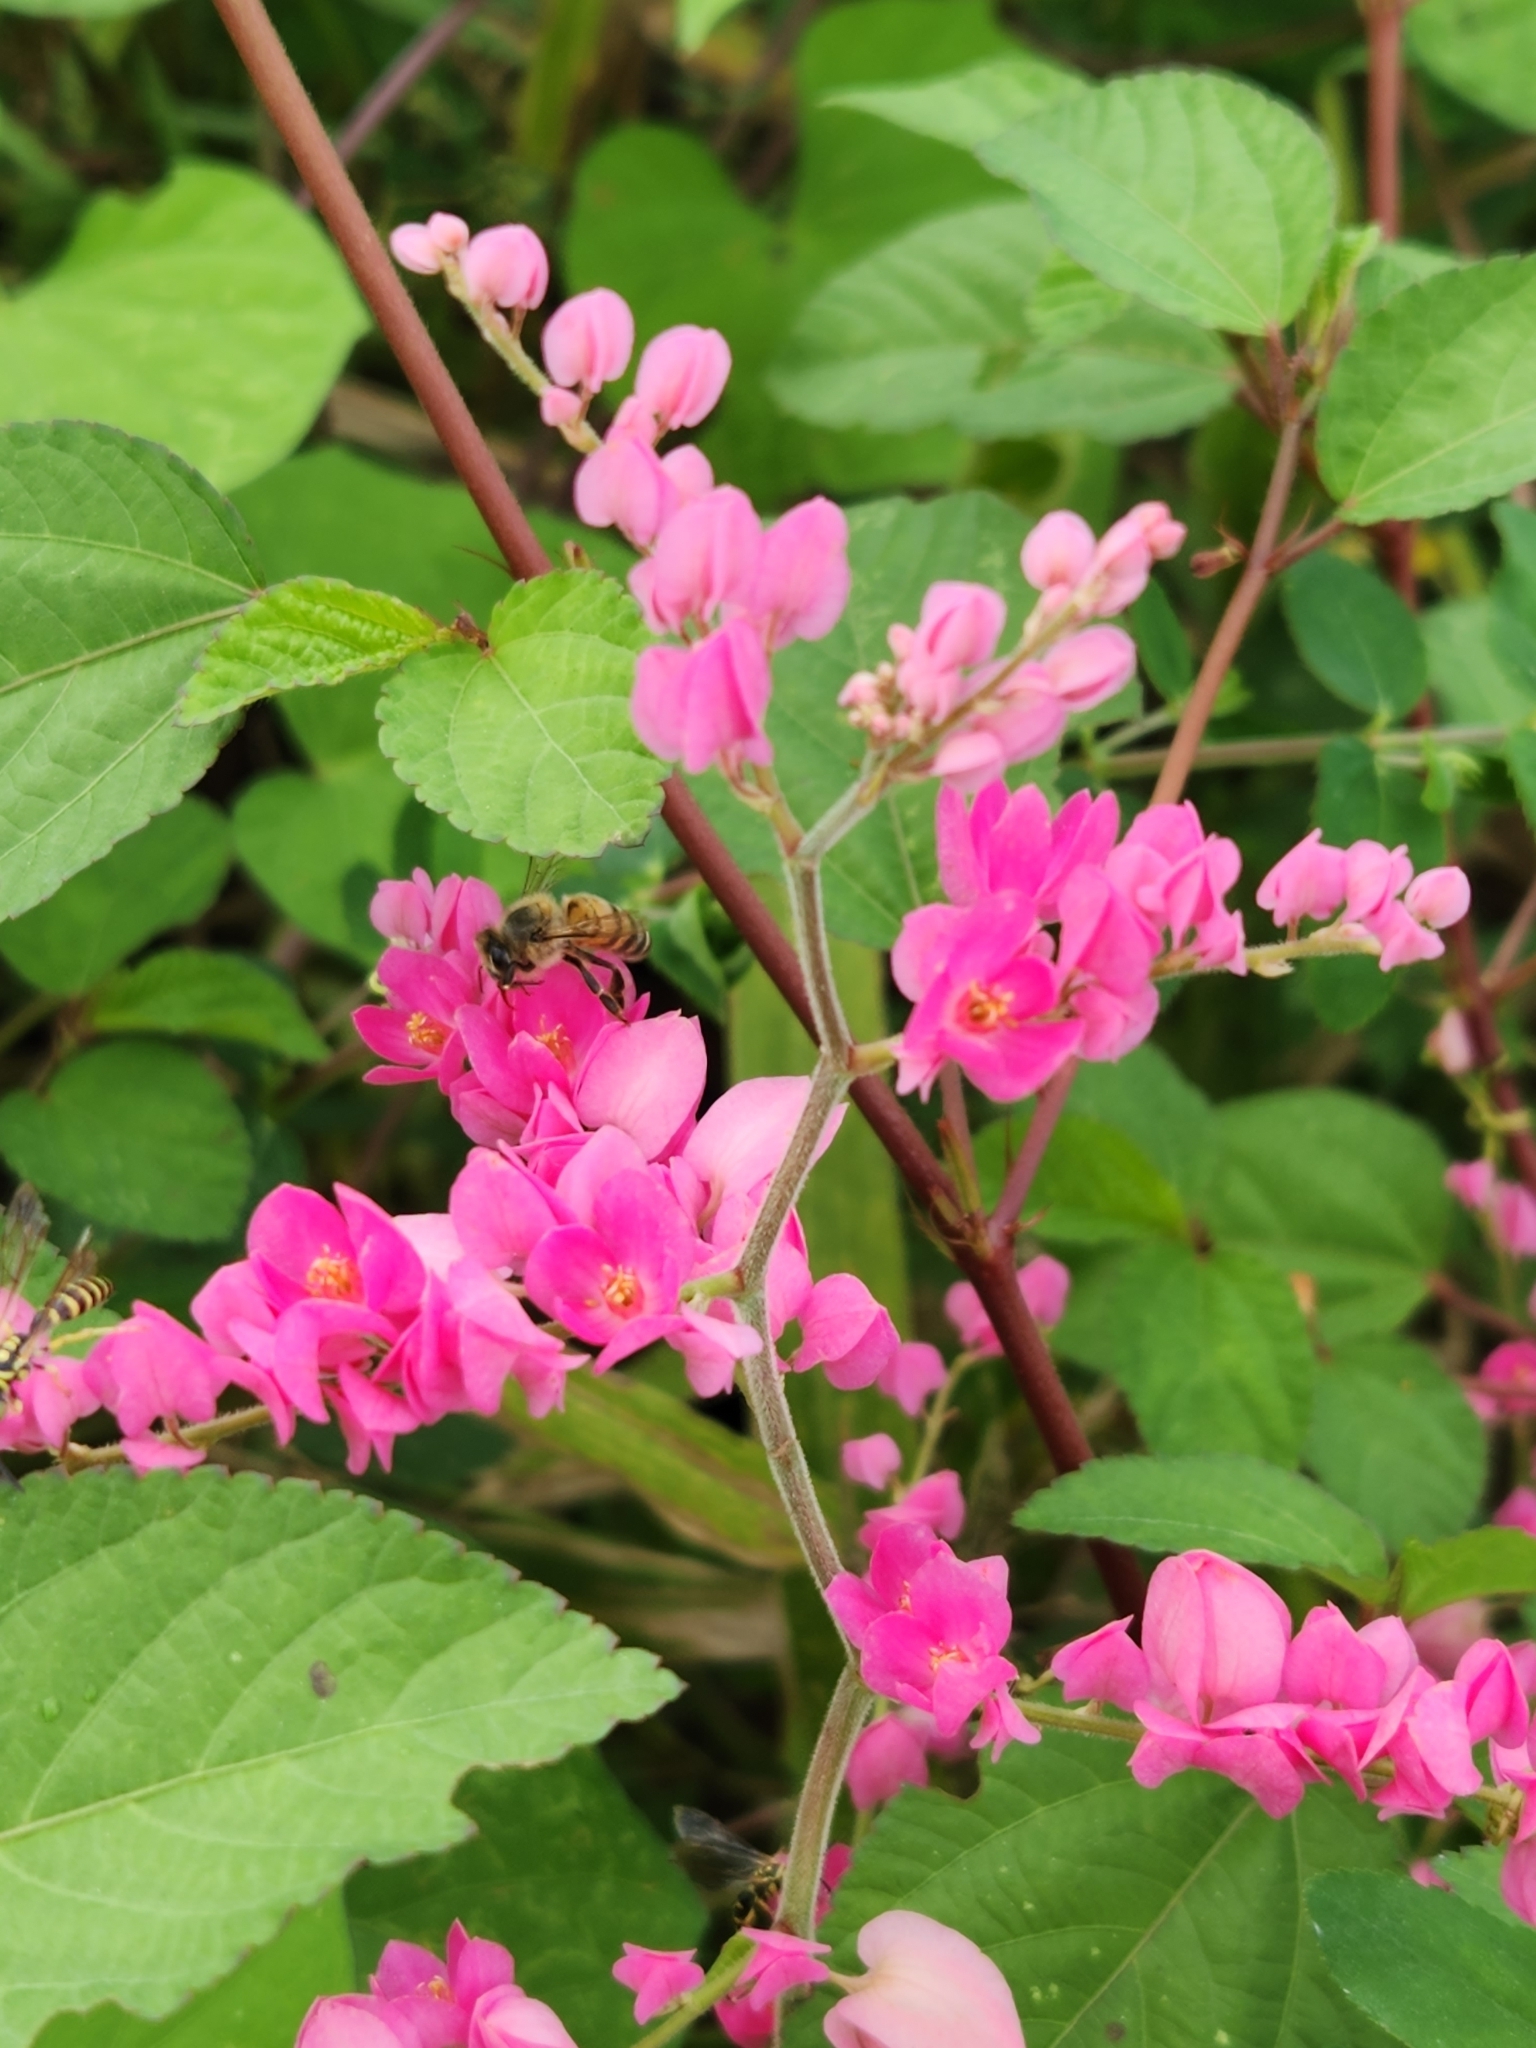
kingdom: Plantae
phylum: Tracheophyta
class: Magnoliopsida
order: Caryophyllales
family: Polygonaceae
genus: Antigonon
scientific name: Antigonon leptopus
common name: Coral vine
